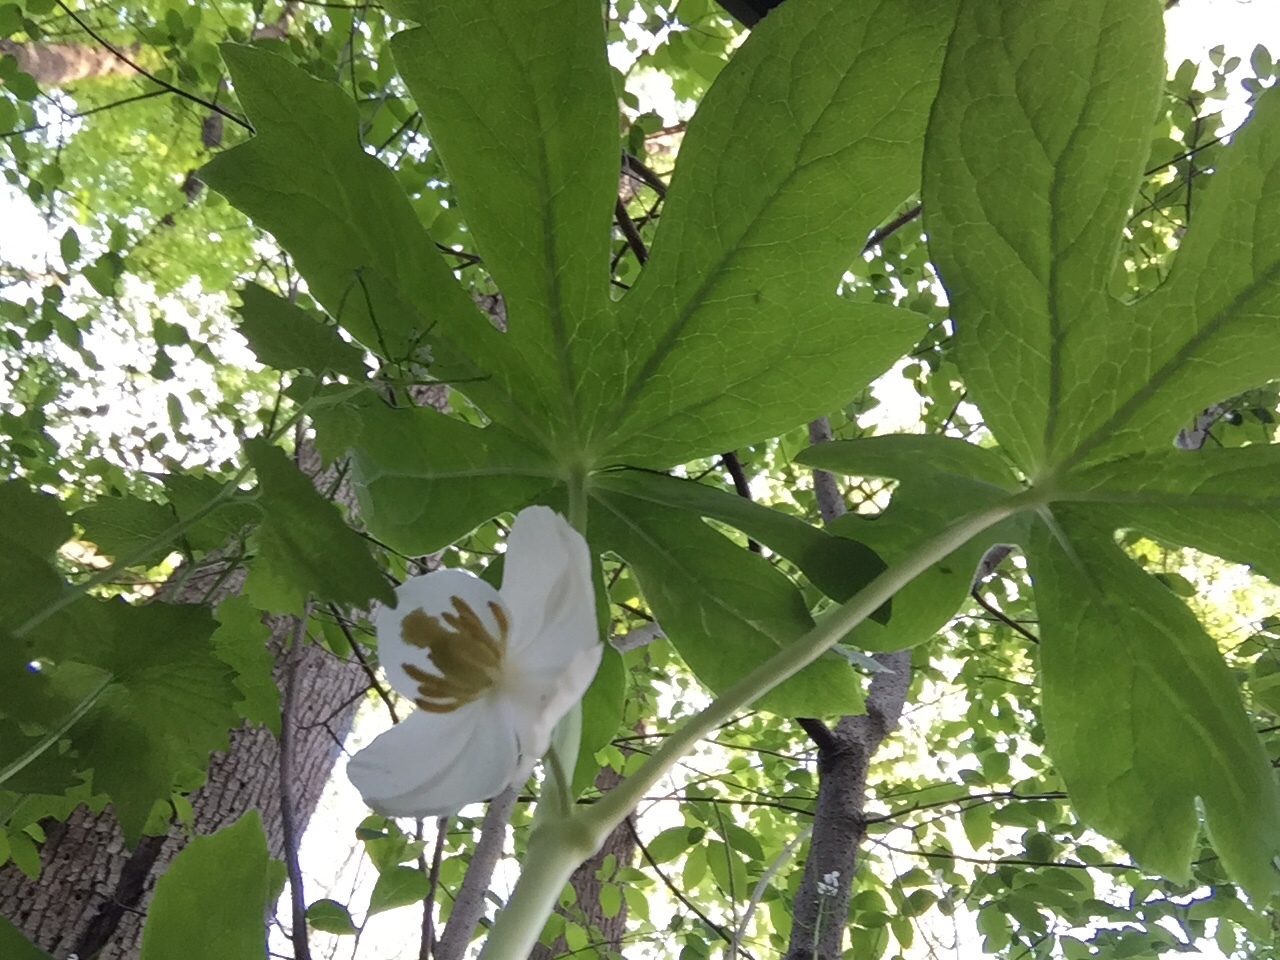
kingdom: Plantae
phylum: Tracheophyta
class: Magnoliopsida
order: Ranunculales
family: Berberidaceae
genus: Podophyllum
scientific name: Podophyllum peltatum
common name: Wild mandrake
